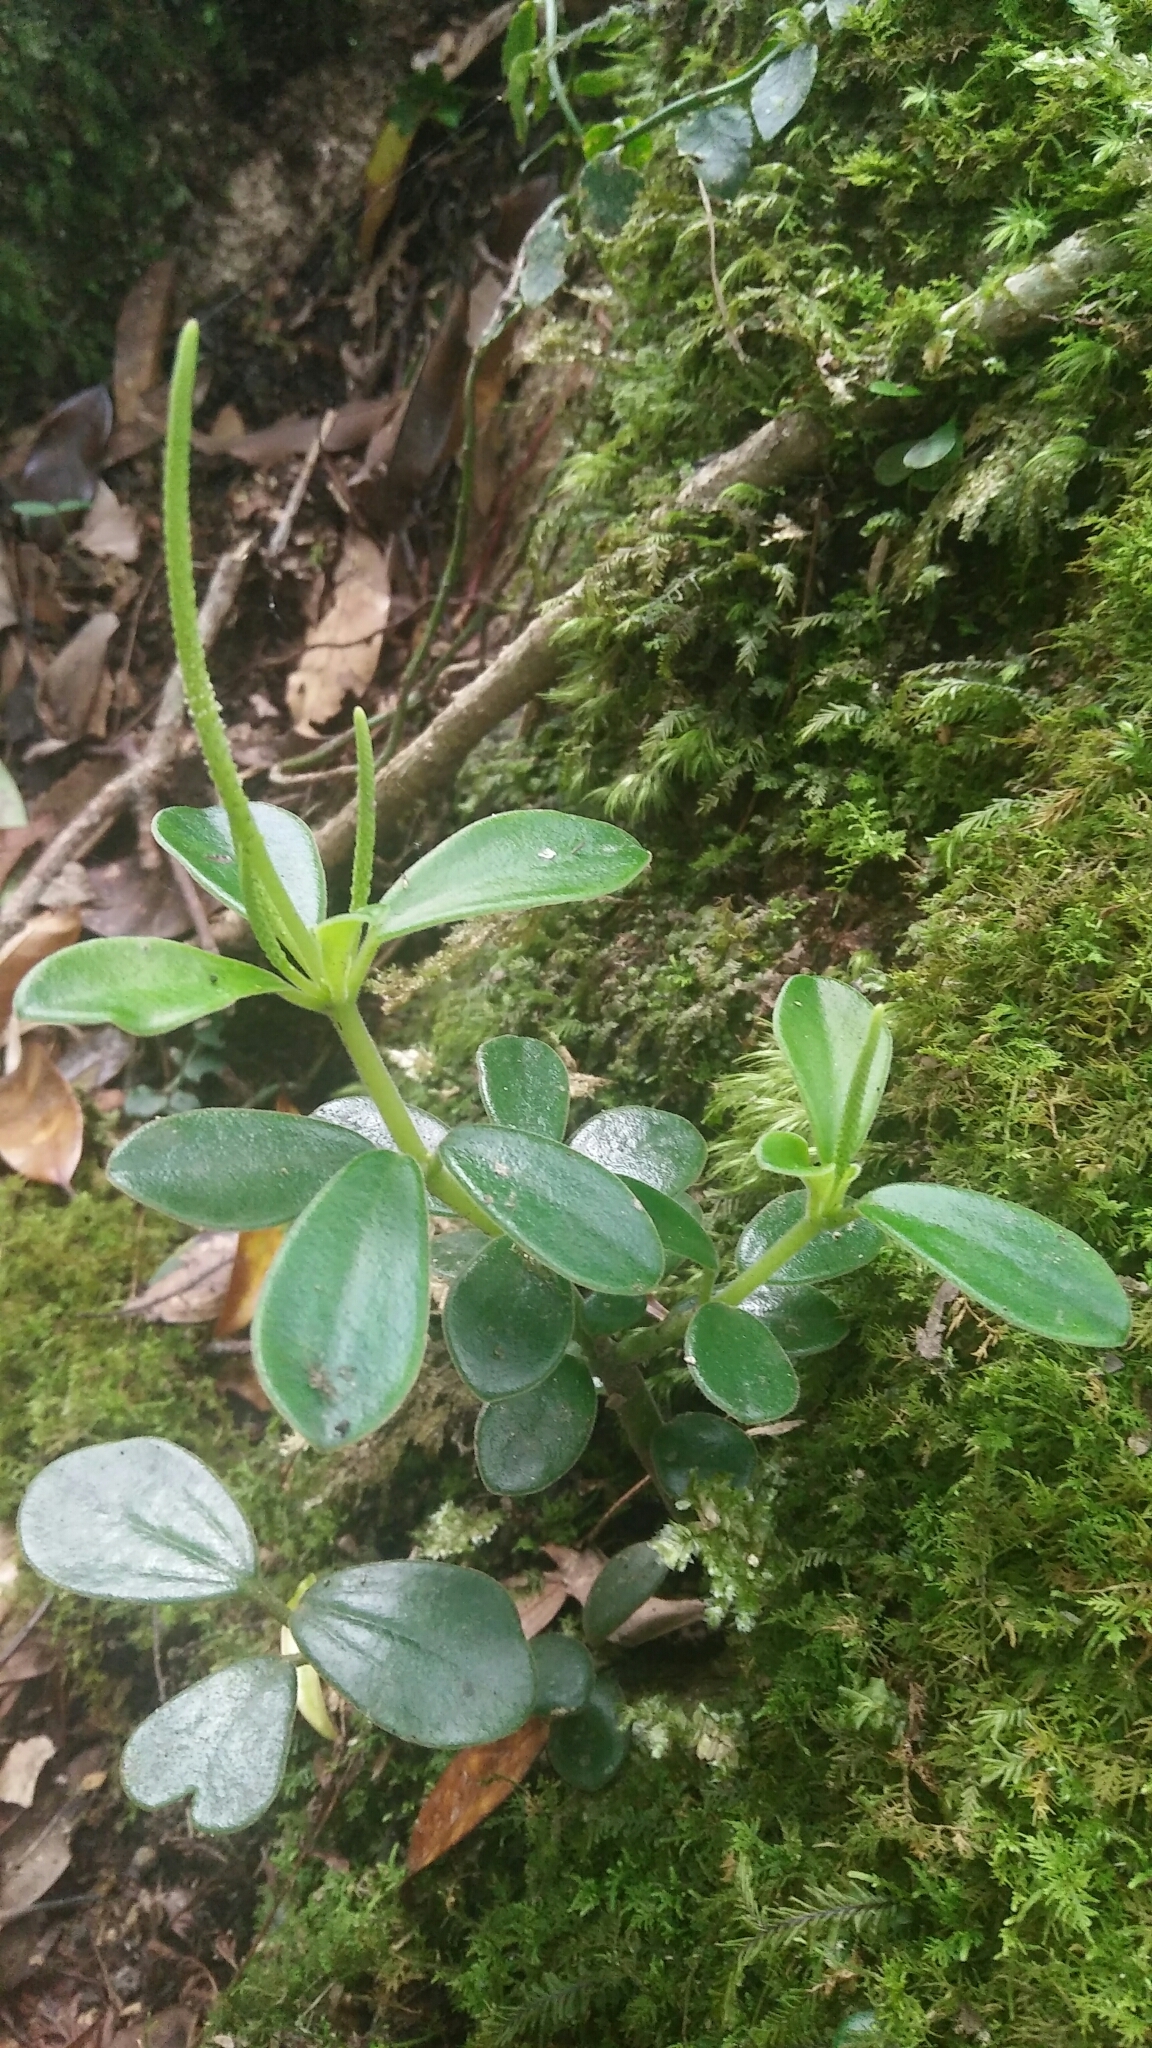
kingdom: Plantae
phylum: Tracheophyta
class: Magnoliopsida
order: Piperales
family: Piperaceae
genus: Peperomia
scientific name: Peperomia japonica
